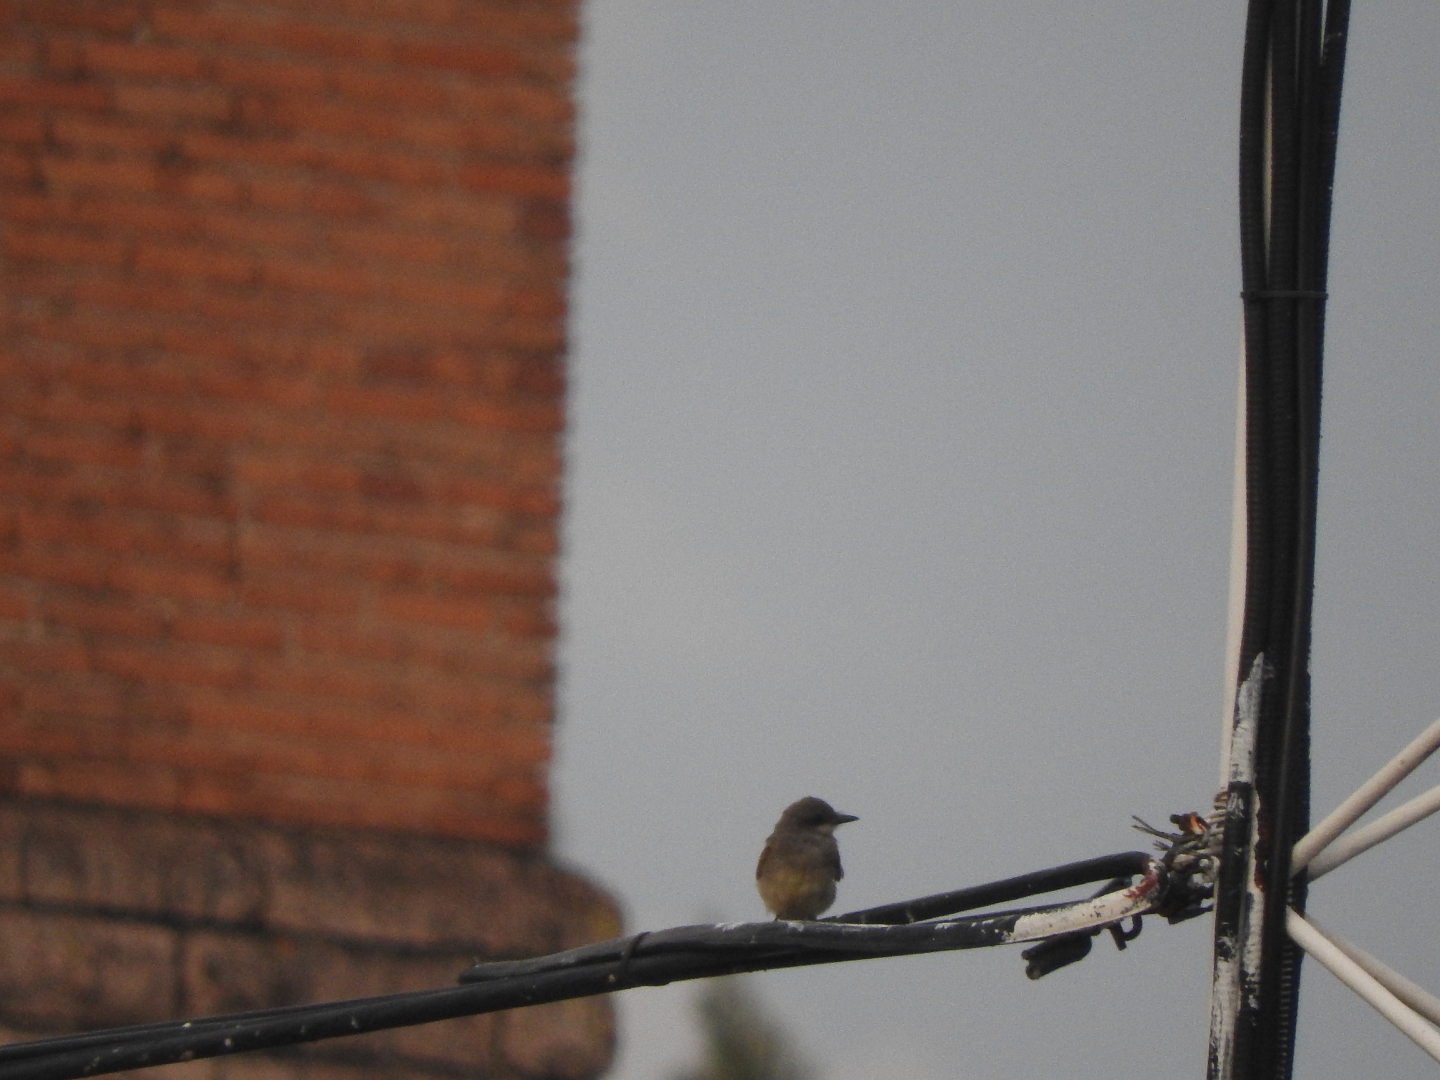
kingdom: Animalia
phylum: Chordata
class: Aves
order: Passeriformes
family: Tyrannidae
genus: Tyrannus
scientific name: Tyrannus vociferans
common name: Cassin's kingbird
